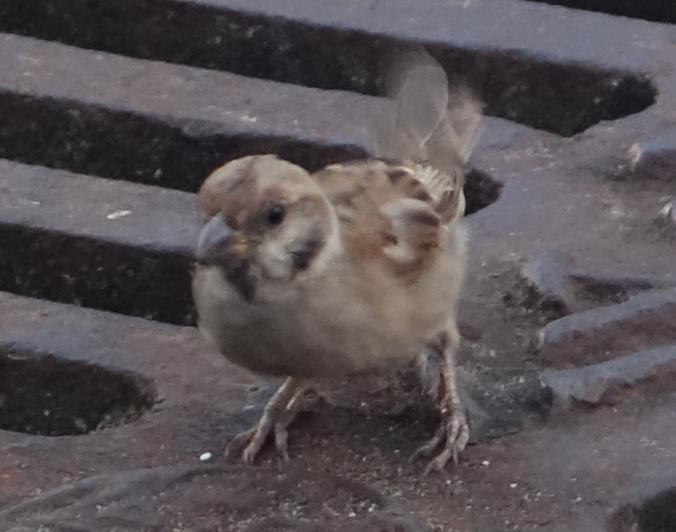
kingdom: Animalia
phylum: Chordata
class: Aves
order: Passeriformes
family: Passeridae
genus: Passer
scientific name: Passer montanus
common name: Eurasian tree sparrow
